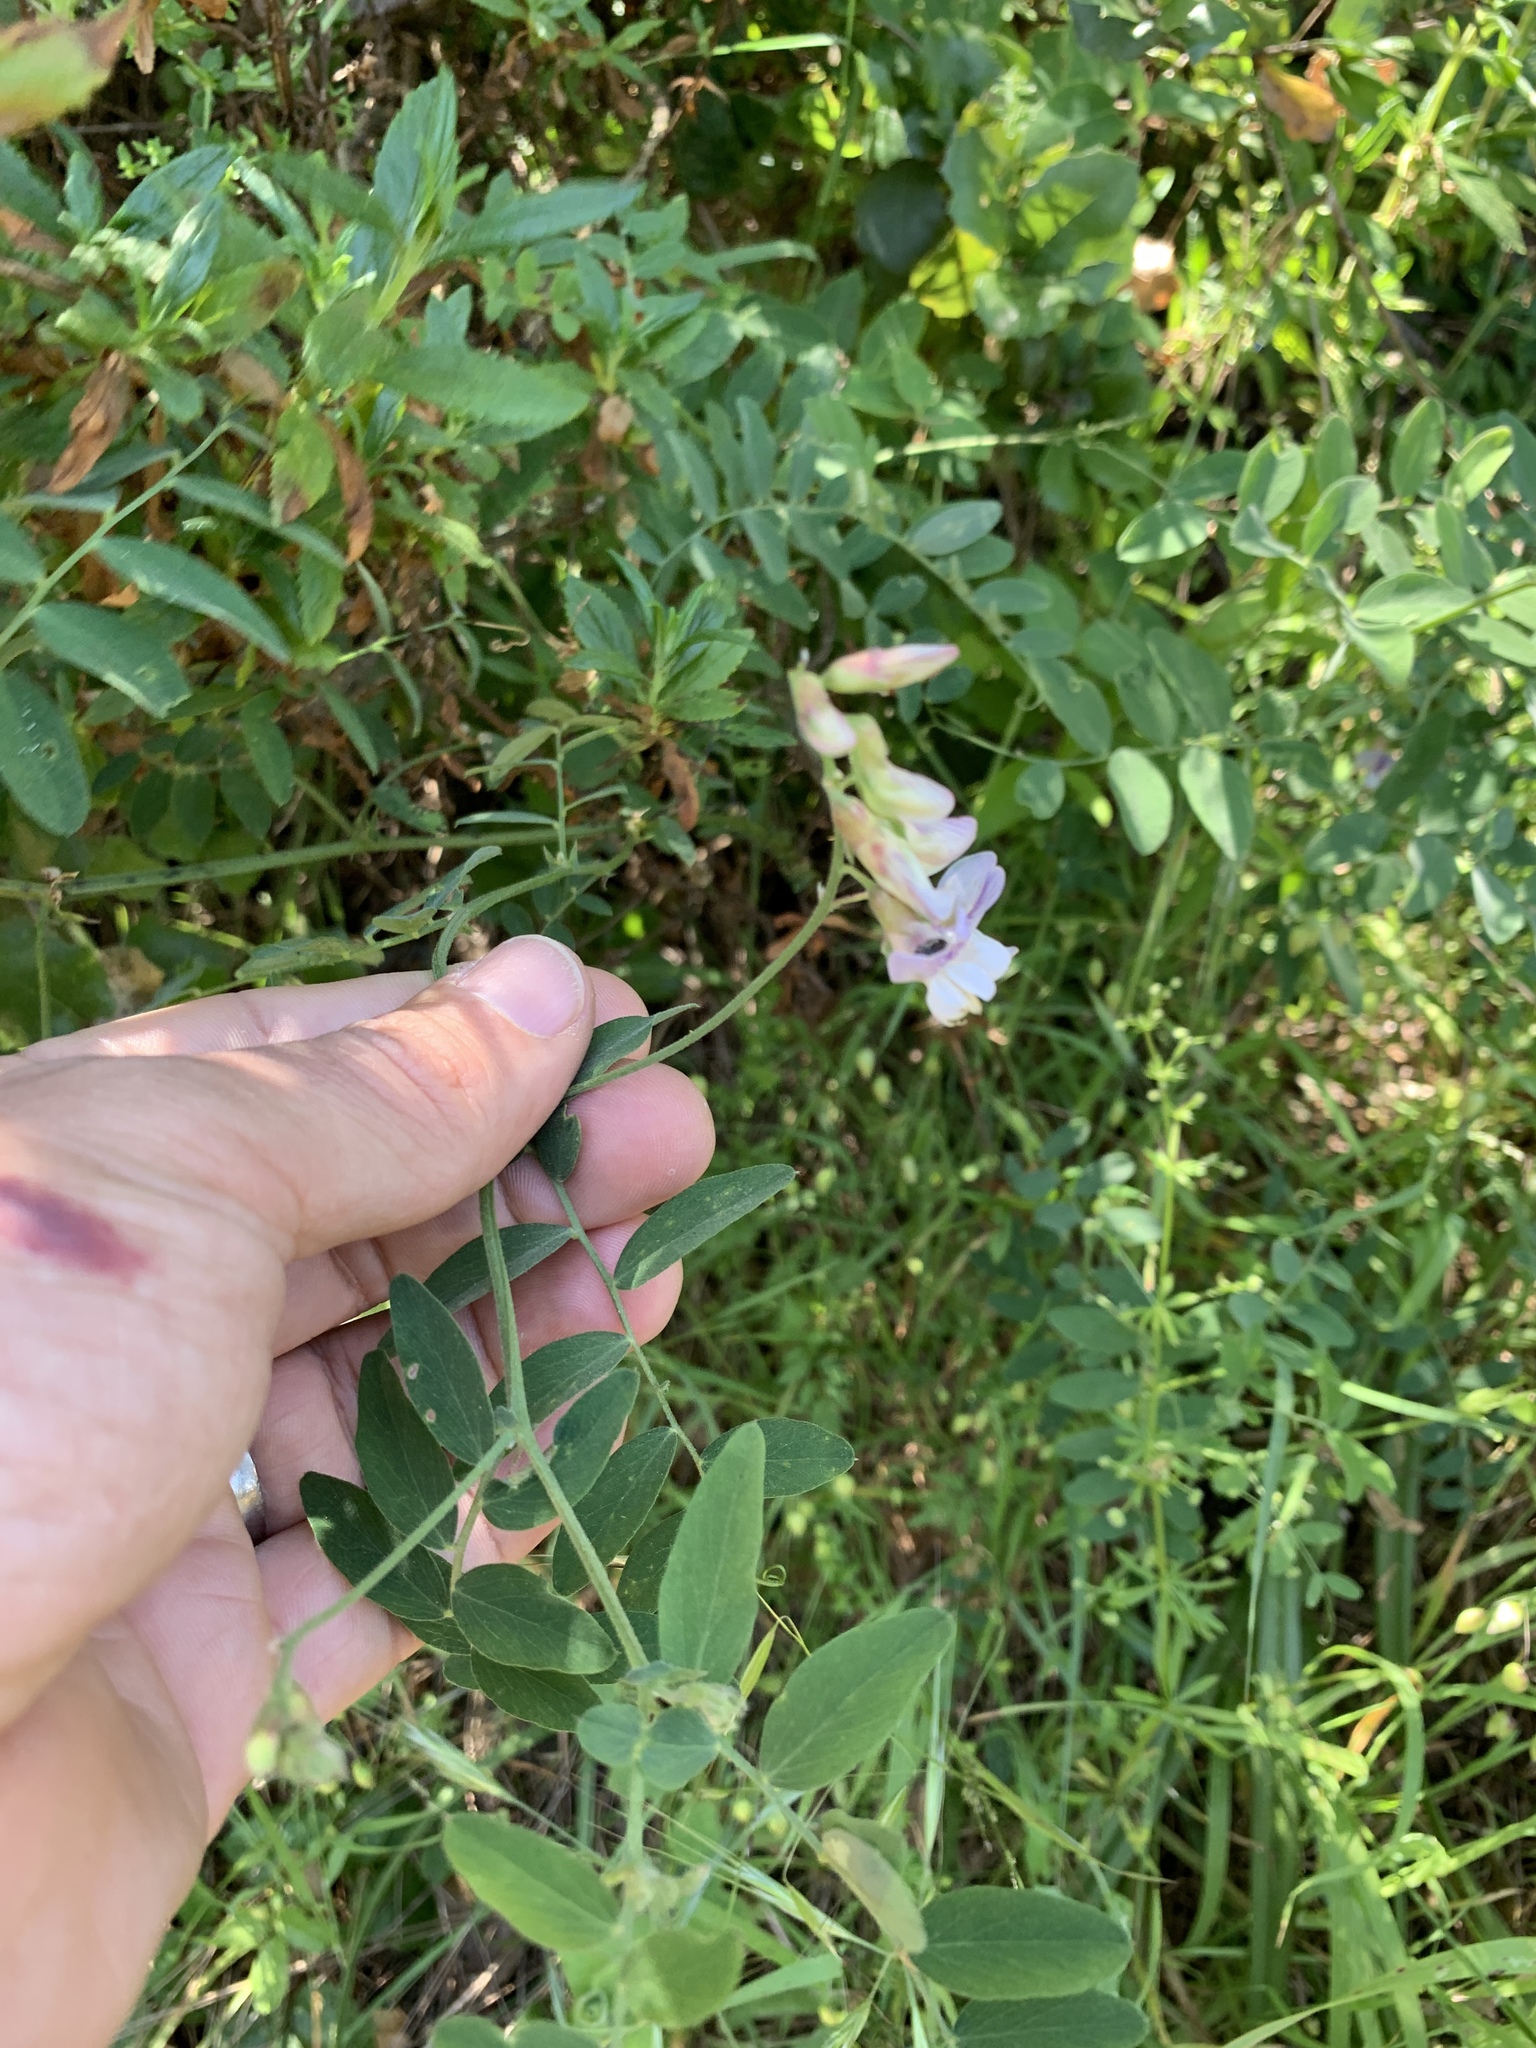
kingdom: Plantae
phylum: Tracheophyta
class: Magnoliopsida
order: Fabales
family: Fabaceae
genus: Lathyrus
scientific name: Lathyrus vestitus
